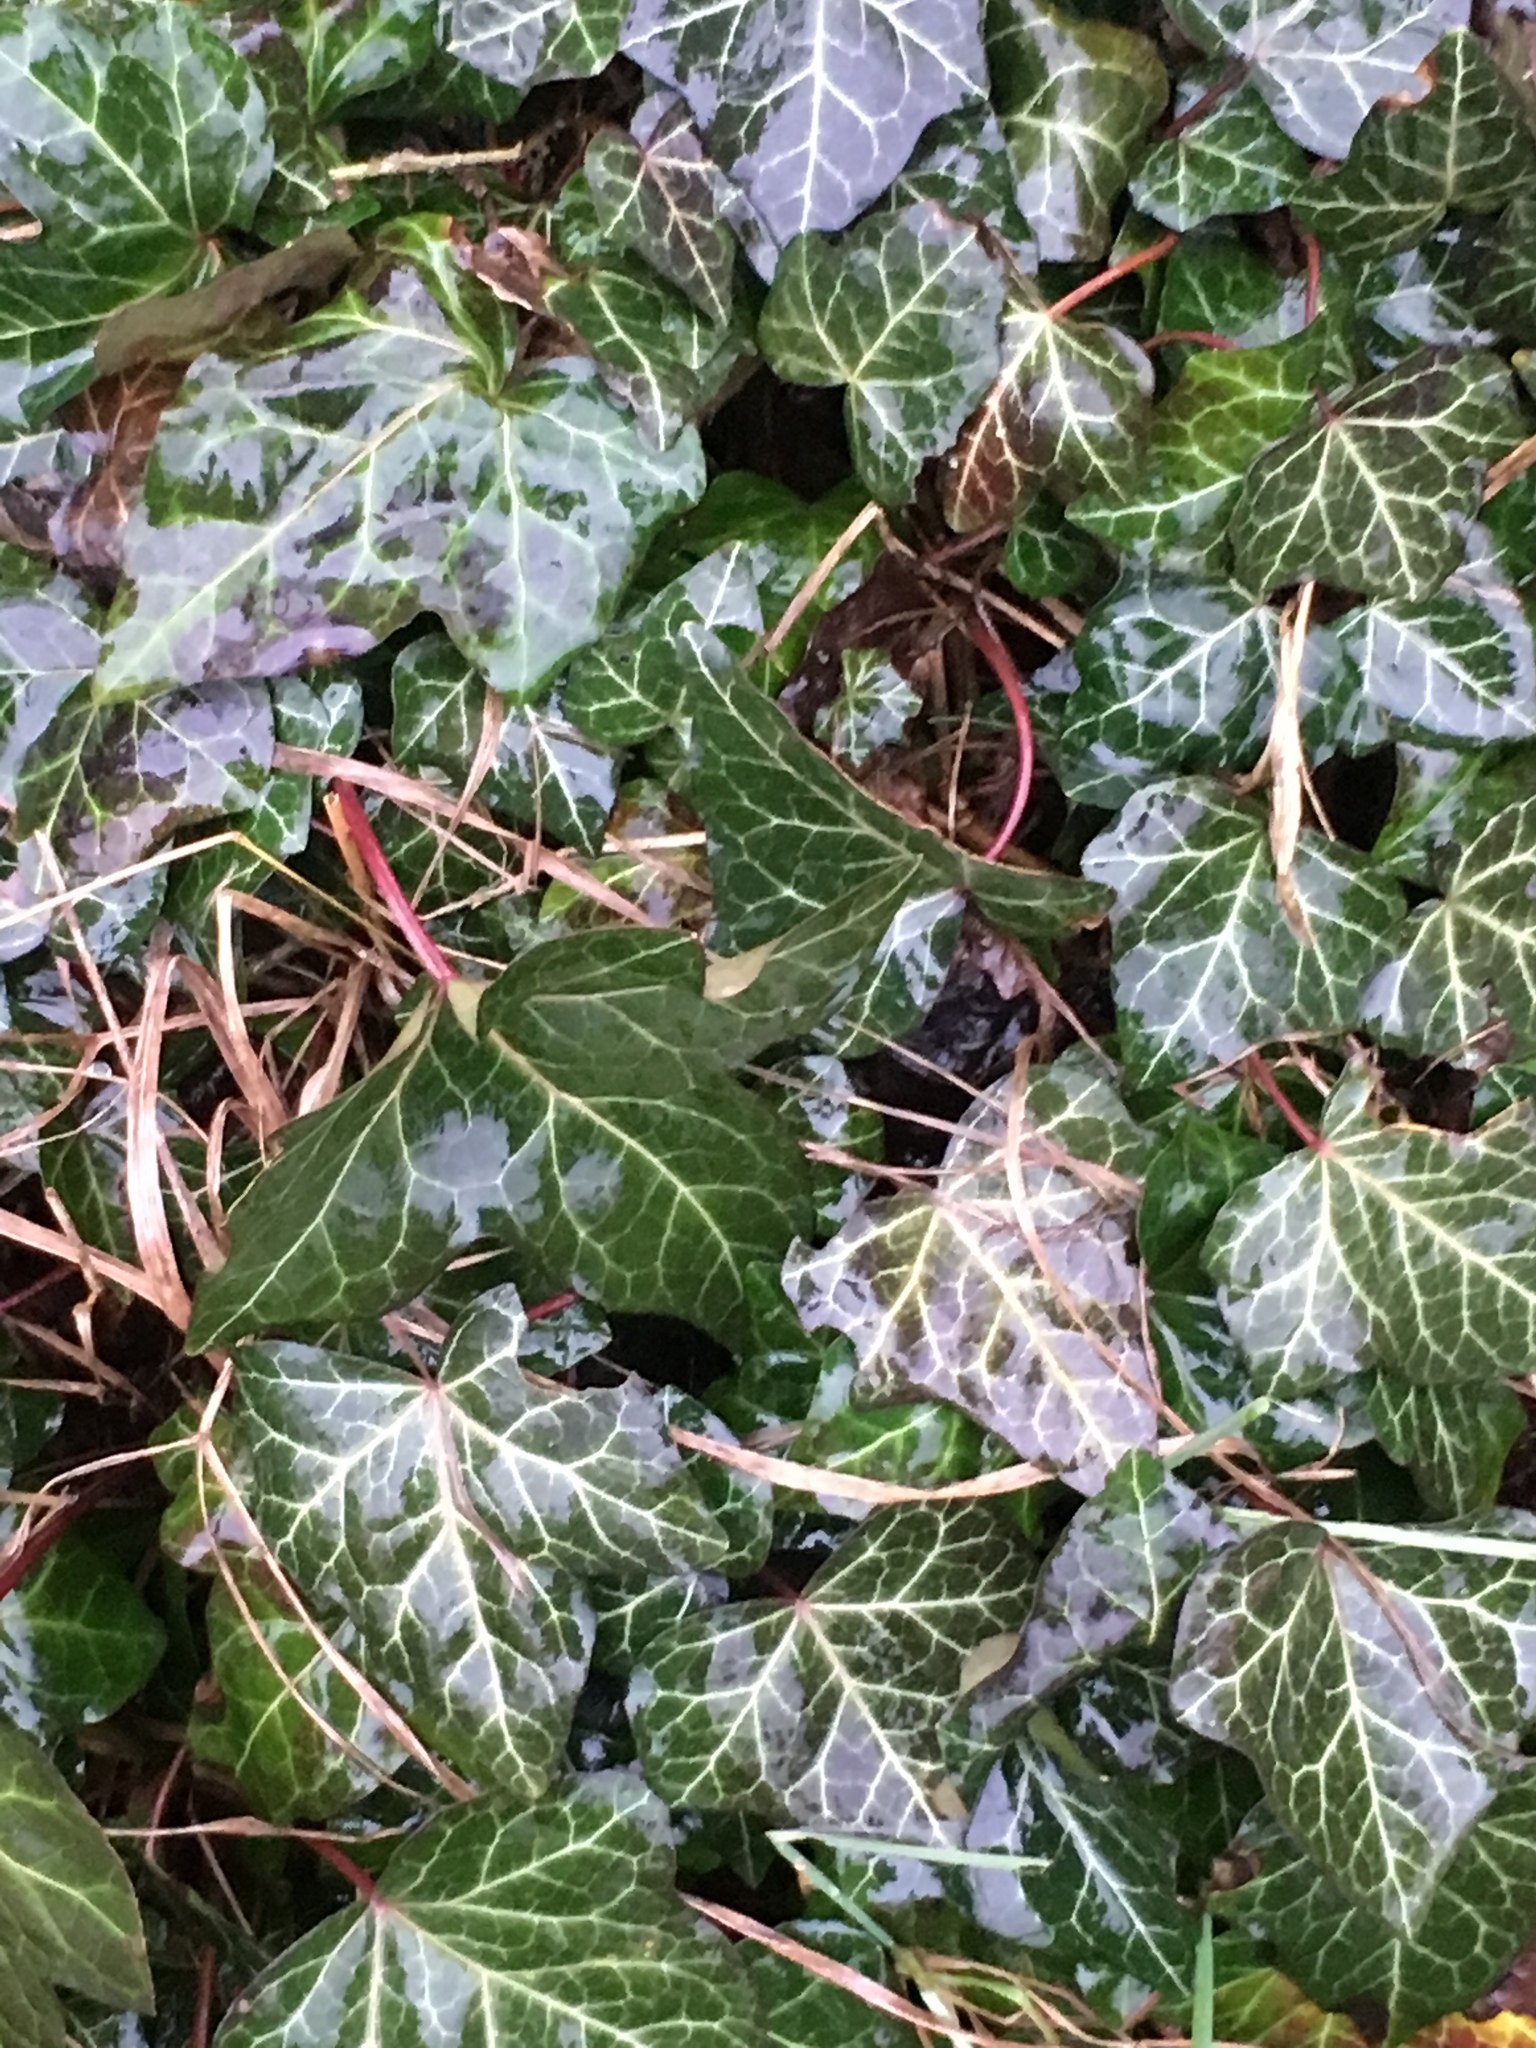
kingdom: Plantae
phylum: Tracheophyta
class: Magnoliopsida
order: Apiales
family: Araliaceae
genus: Hedera
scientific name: Hedera helix
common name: Ivy
